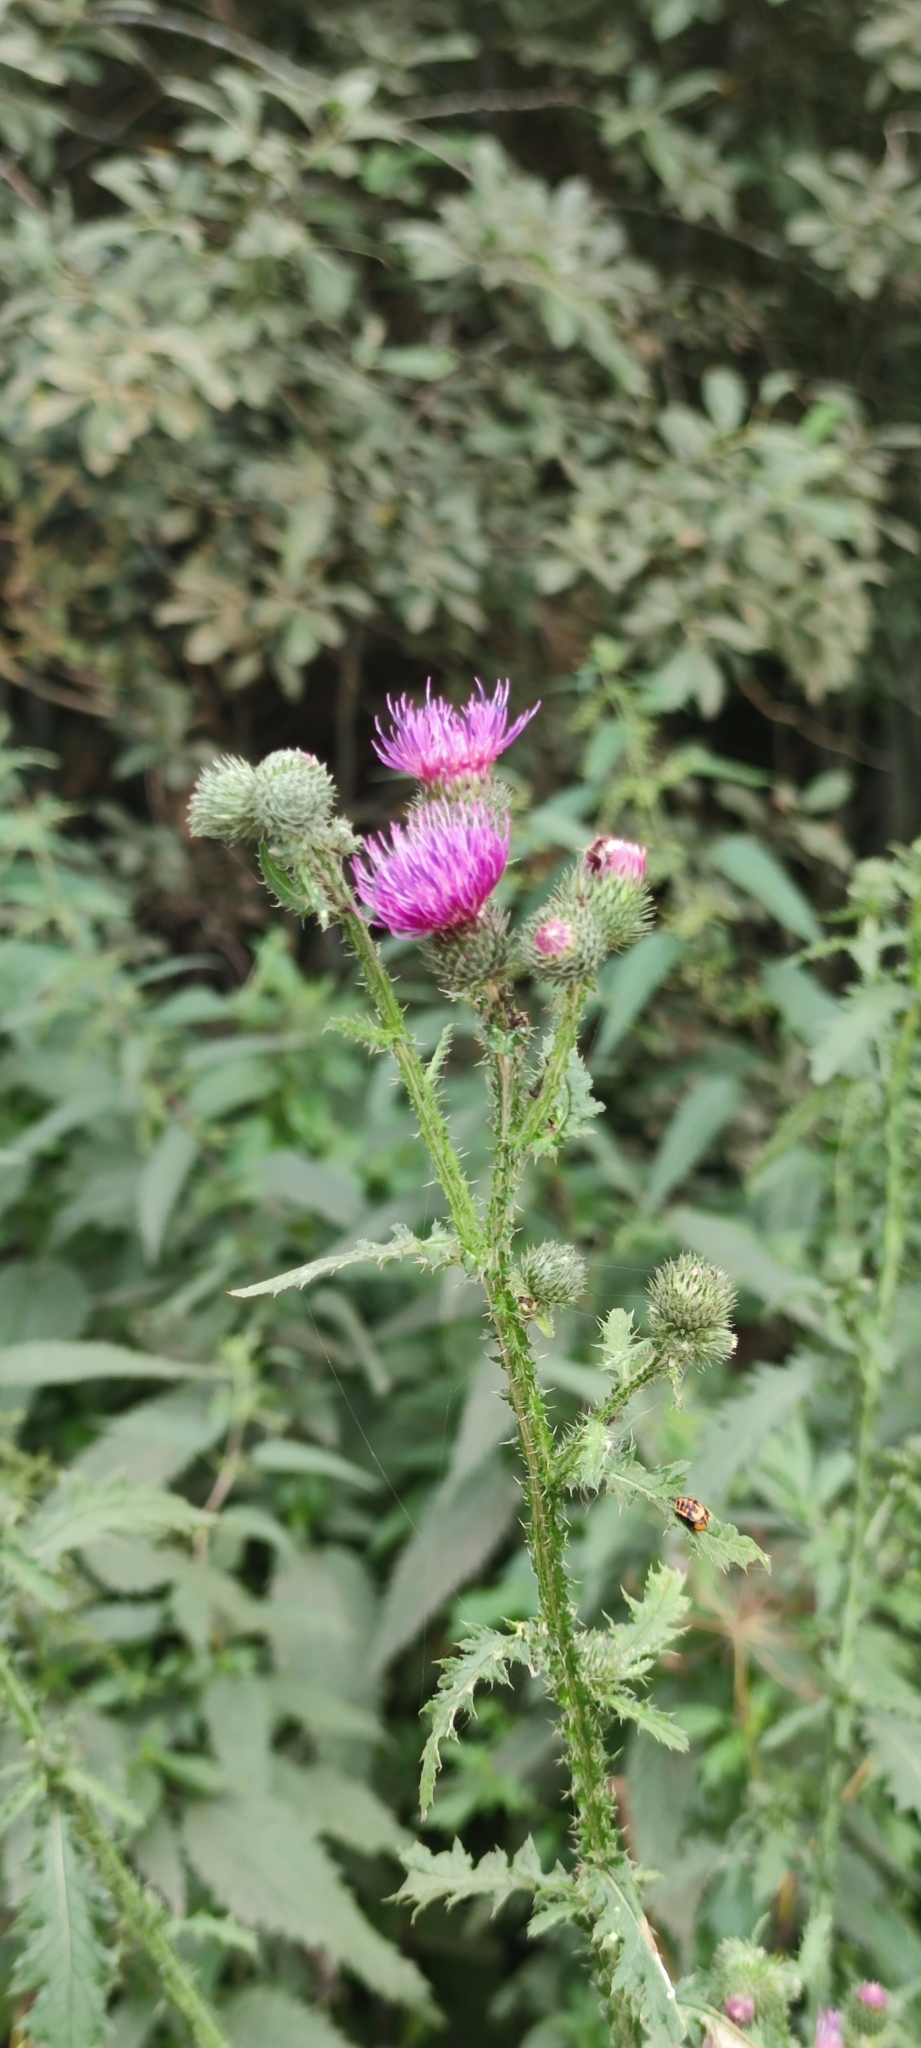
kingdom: Plantae
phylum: Tracheophyta
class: Magnoliopsida
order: Asterales
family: Asteraceae
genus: Carduus
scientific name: Carduus crispus
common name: Welted thistle
